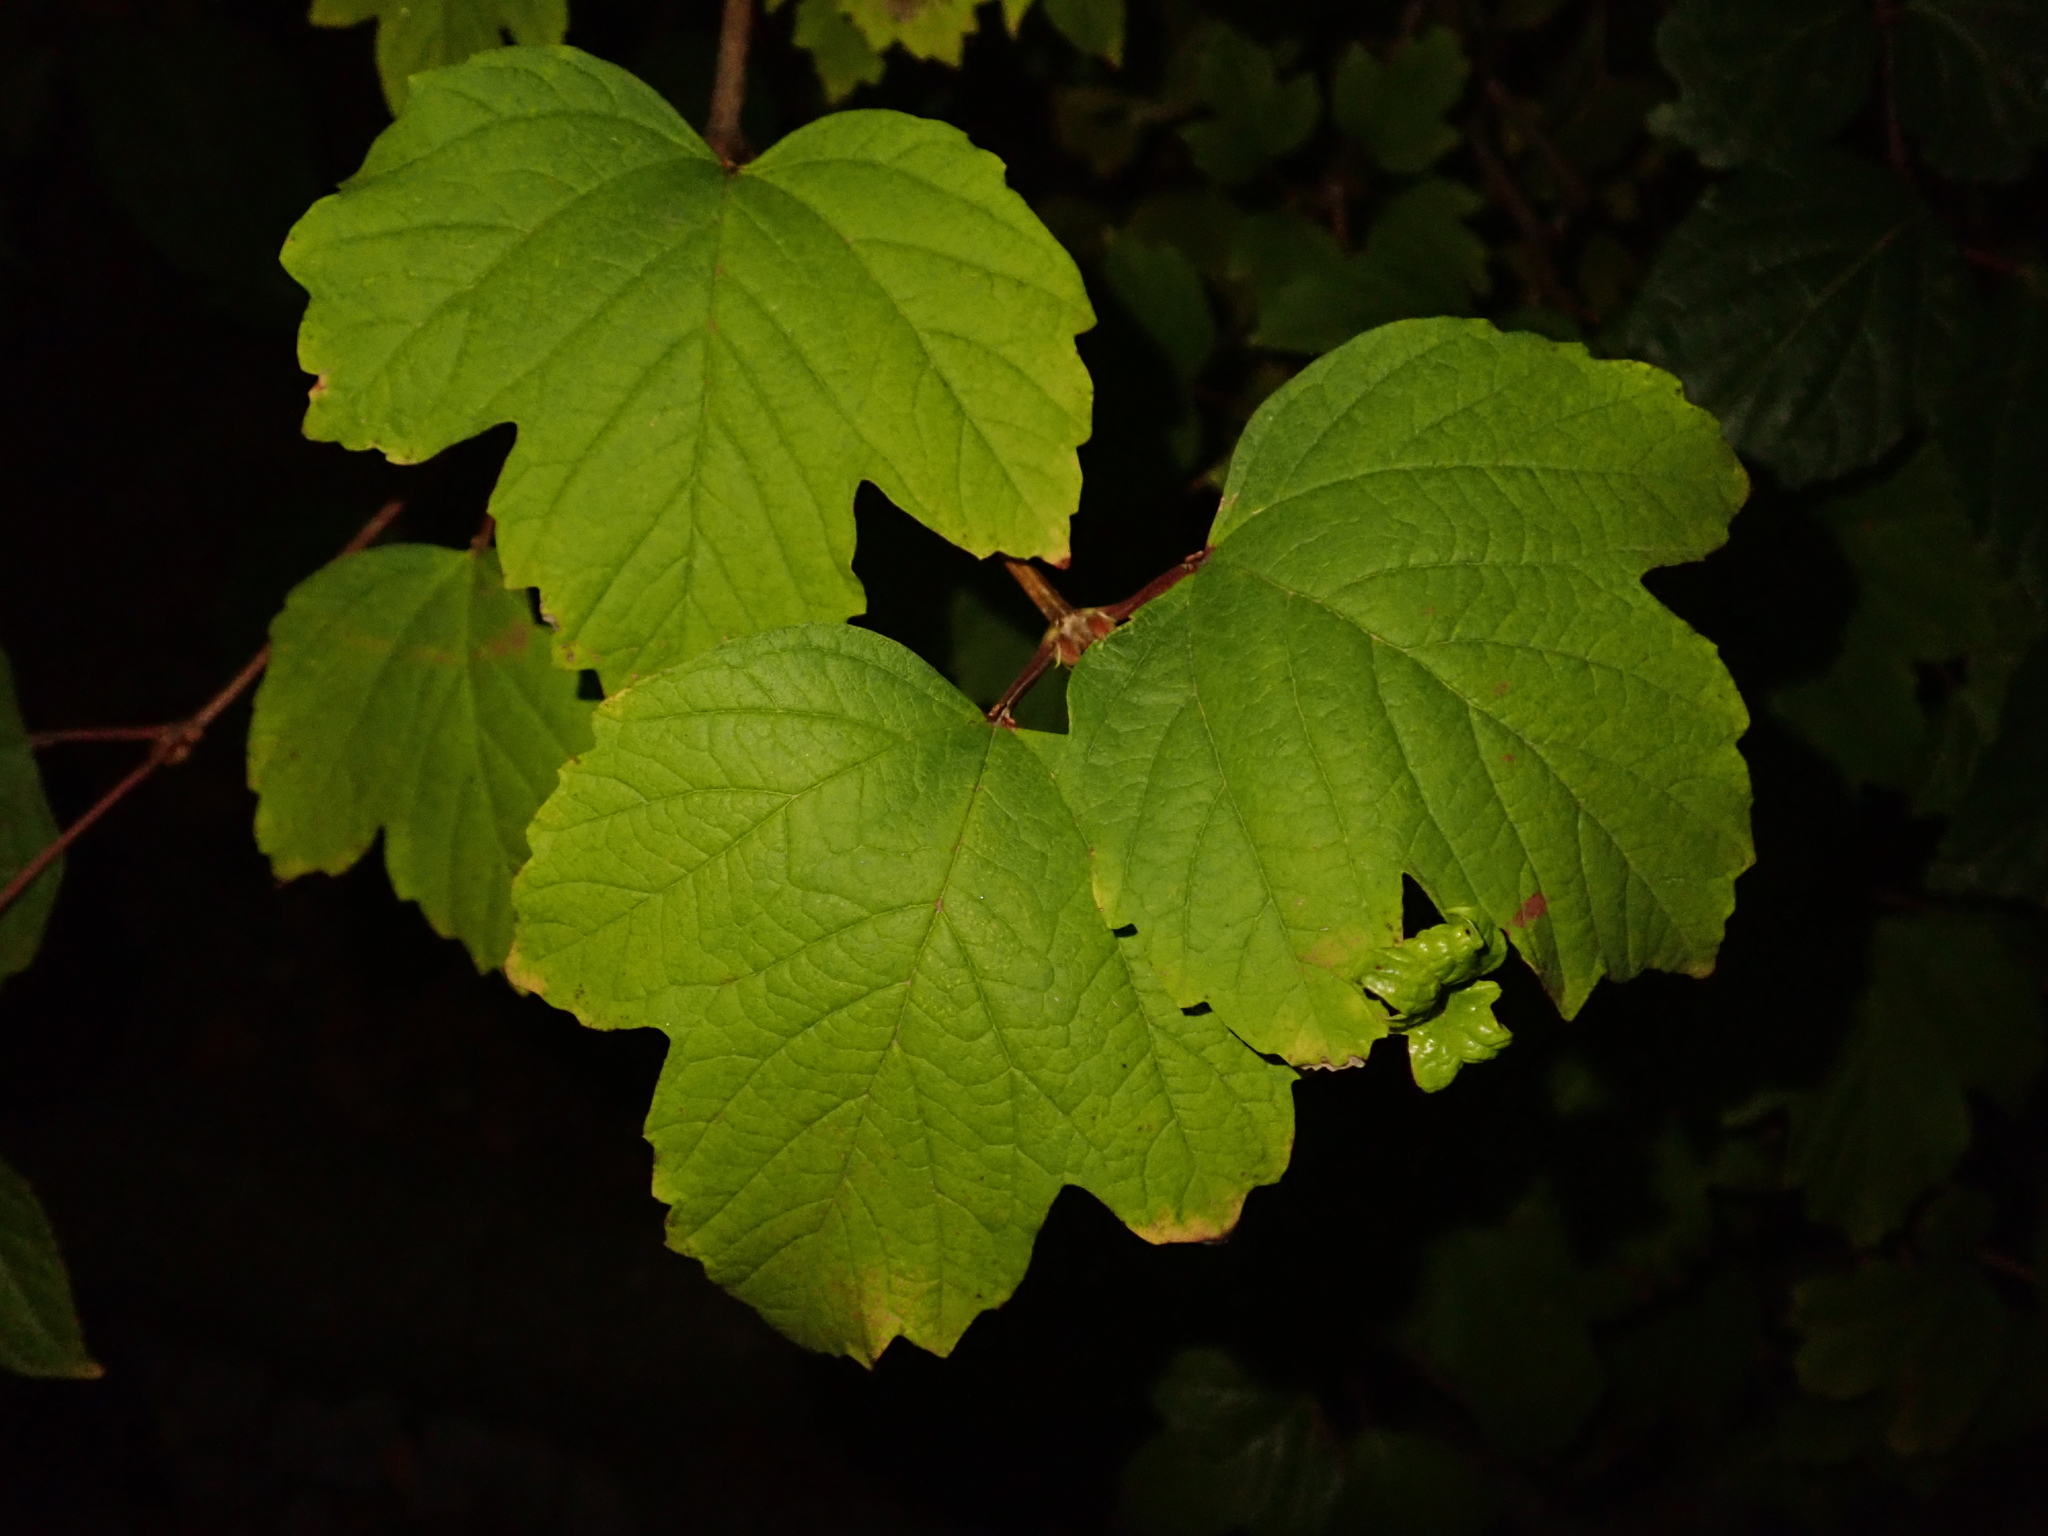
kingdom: Plantae
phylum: Tracheophyta
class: Magnoliopsida
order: Dipsacales
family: Viburnaceae
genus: Viburnum
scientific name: Viburnum opulus
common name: Guelder-rose
